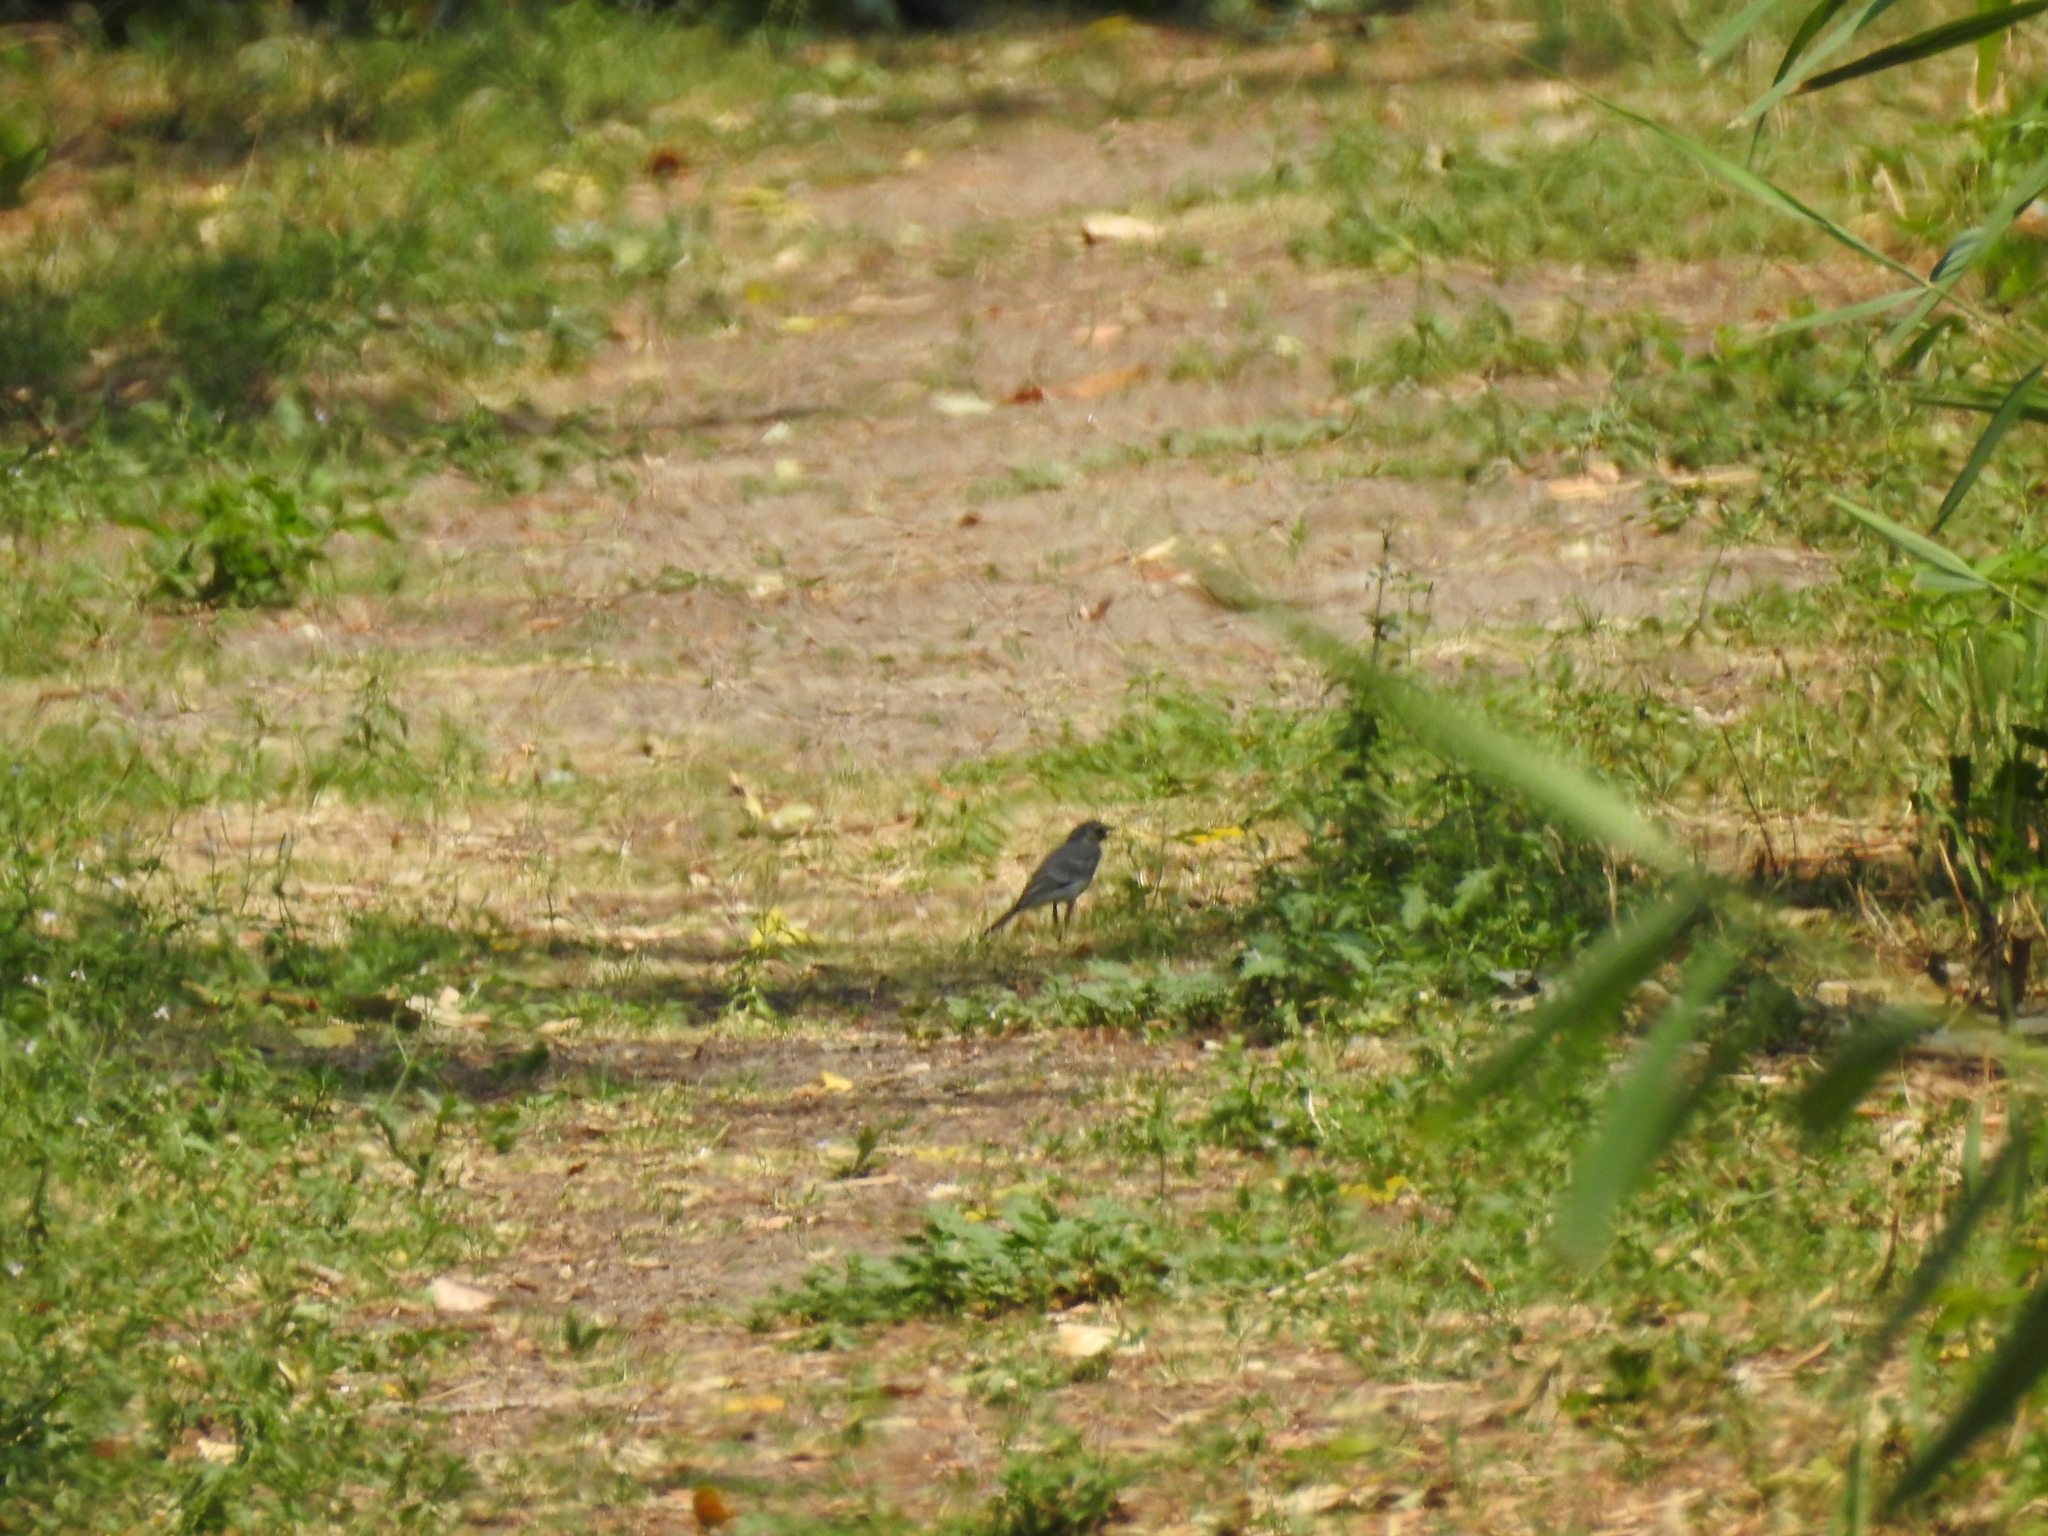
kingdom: Animalia
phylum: Chordata
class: Aves
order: Passeriformes
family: Motacillidae
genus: Motacilla
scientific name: Motacilla alba
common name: White wagtail
